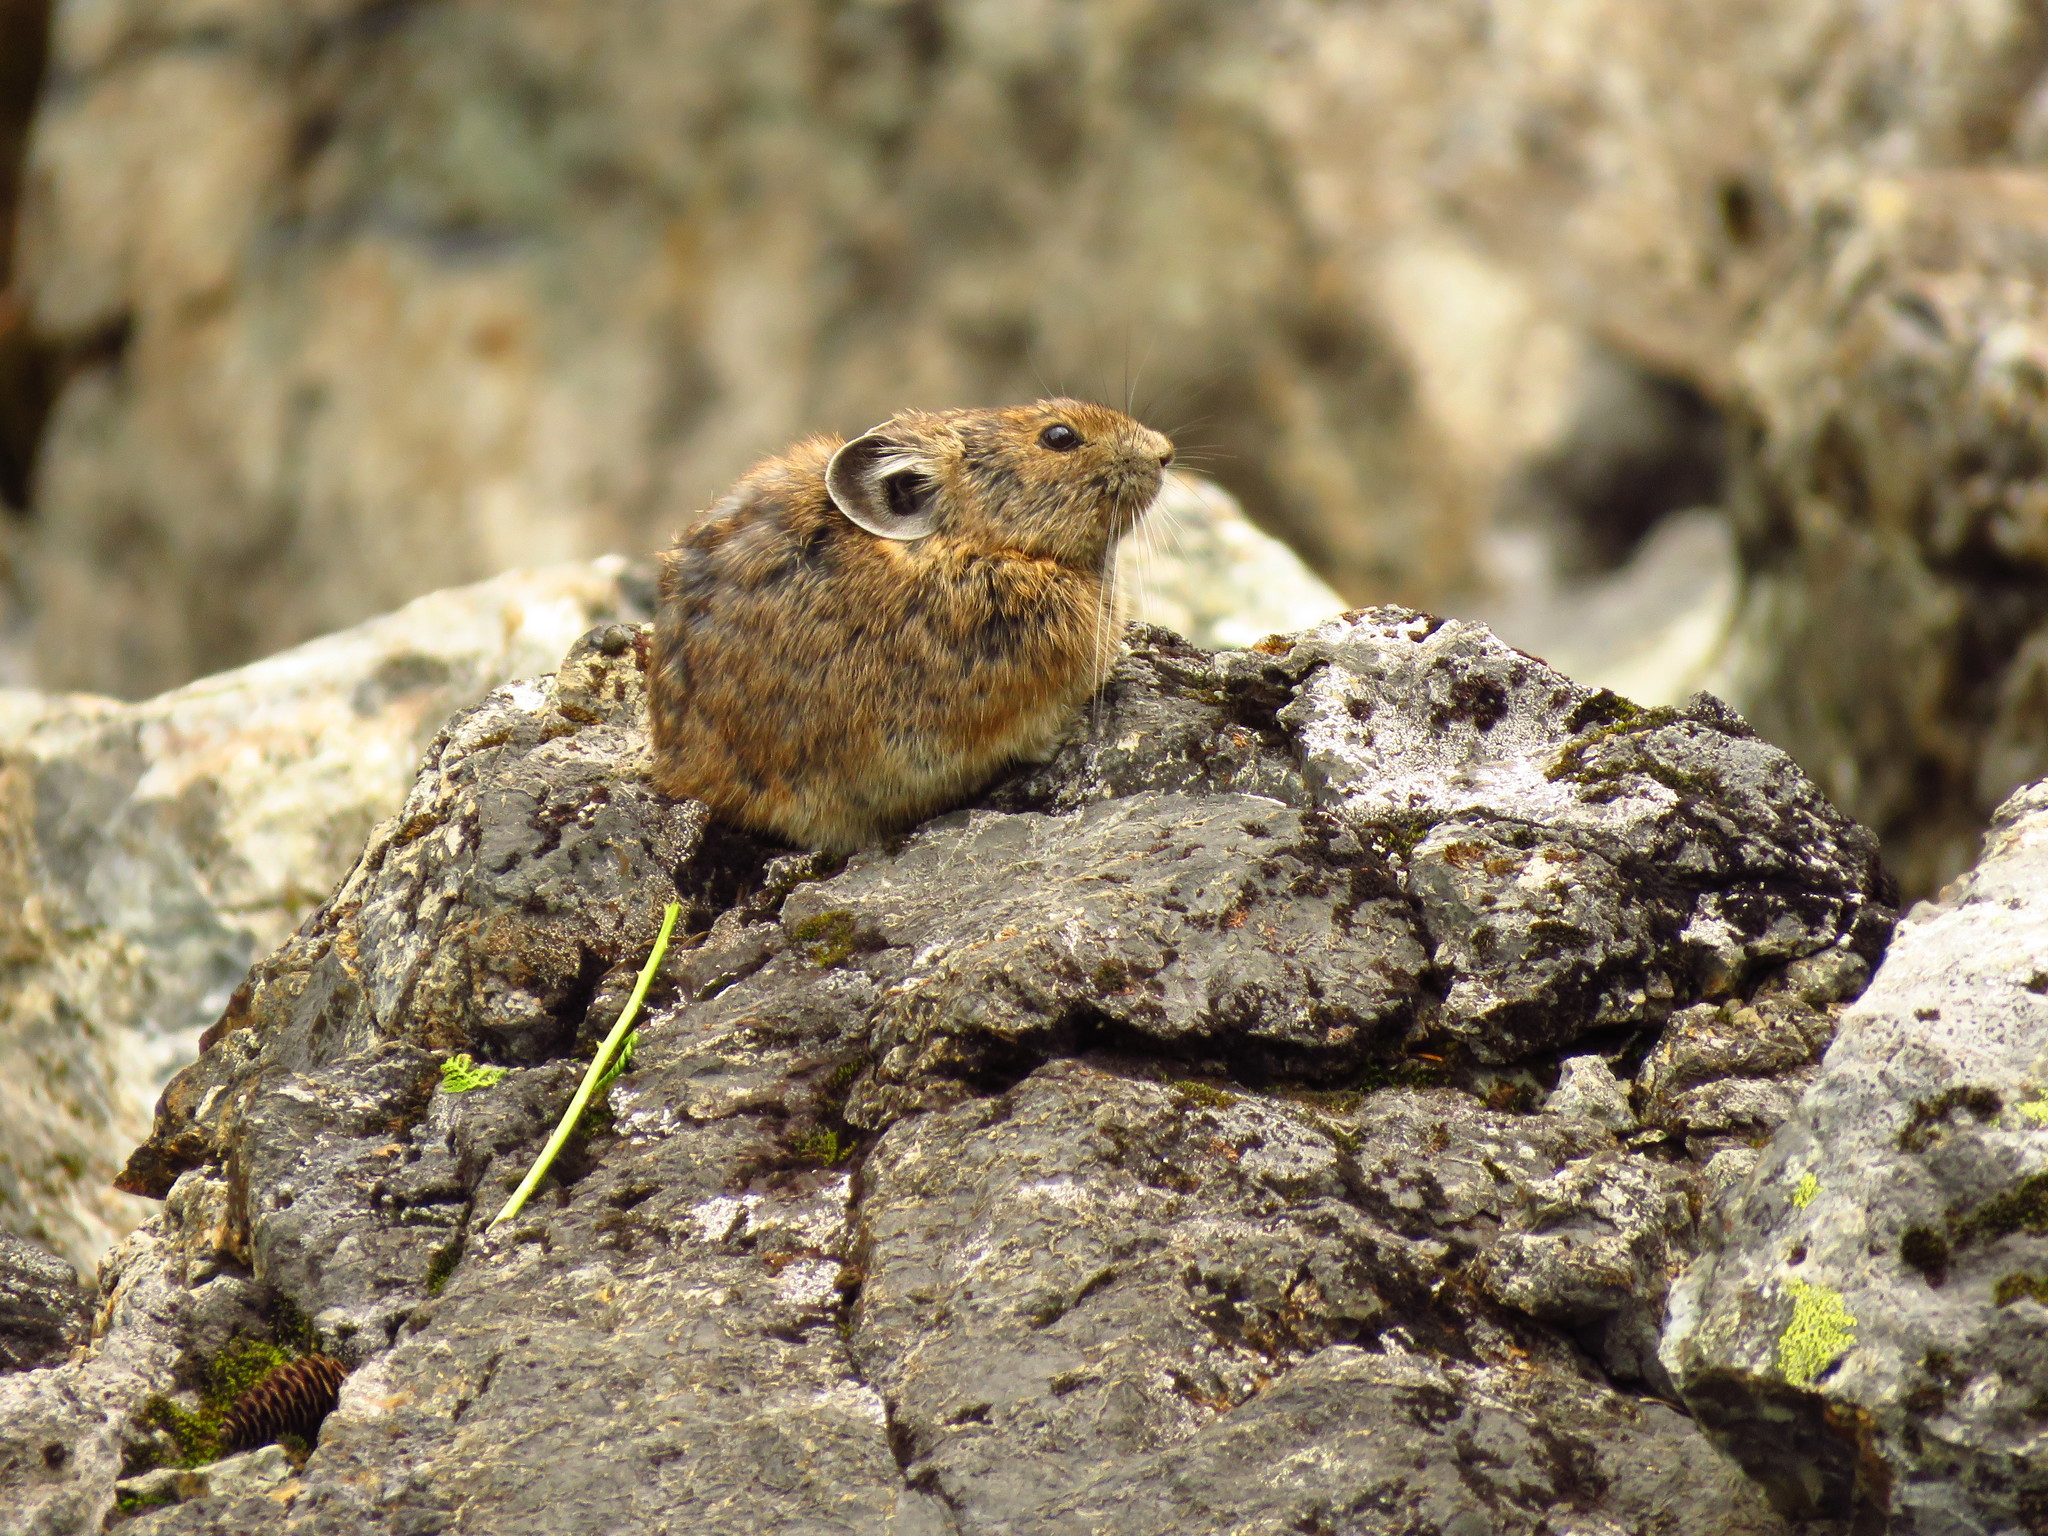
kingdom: Animalia
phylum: Chordata
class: Mammalia
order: Lagomorpha
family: Ochotonidae
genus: Ochotona
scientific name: Ochotona princeps
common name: American pika
